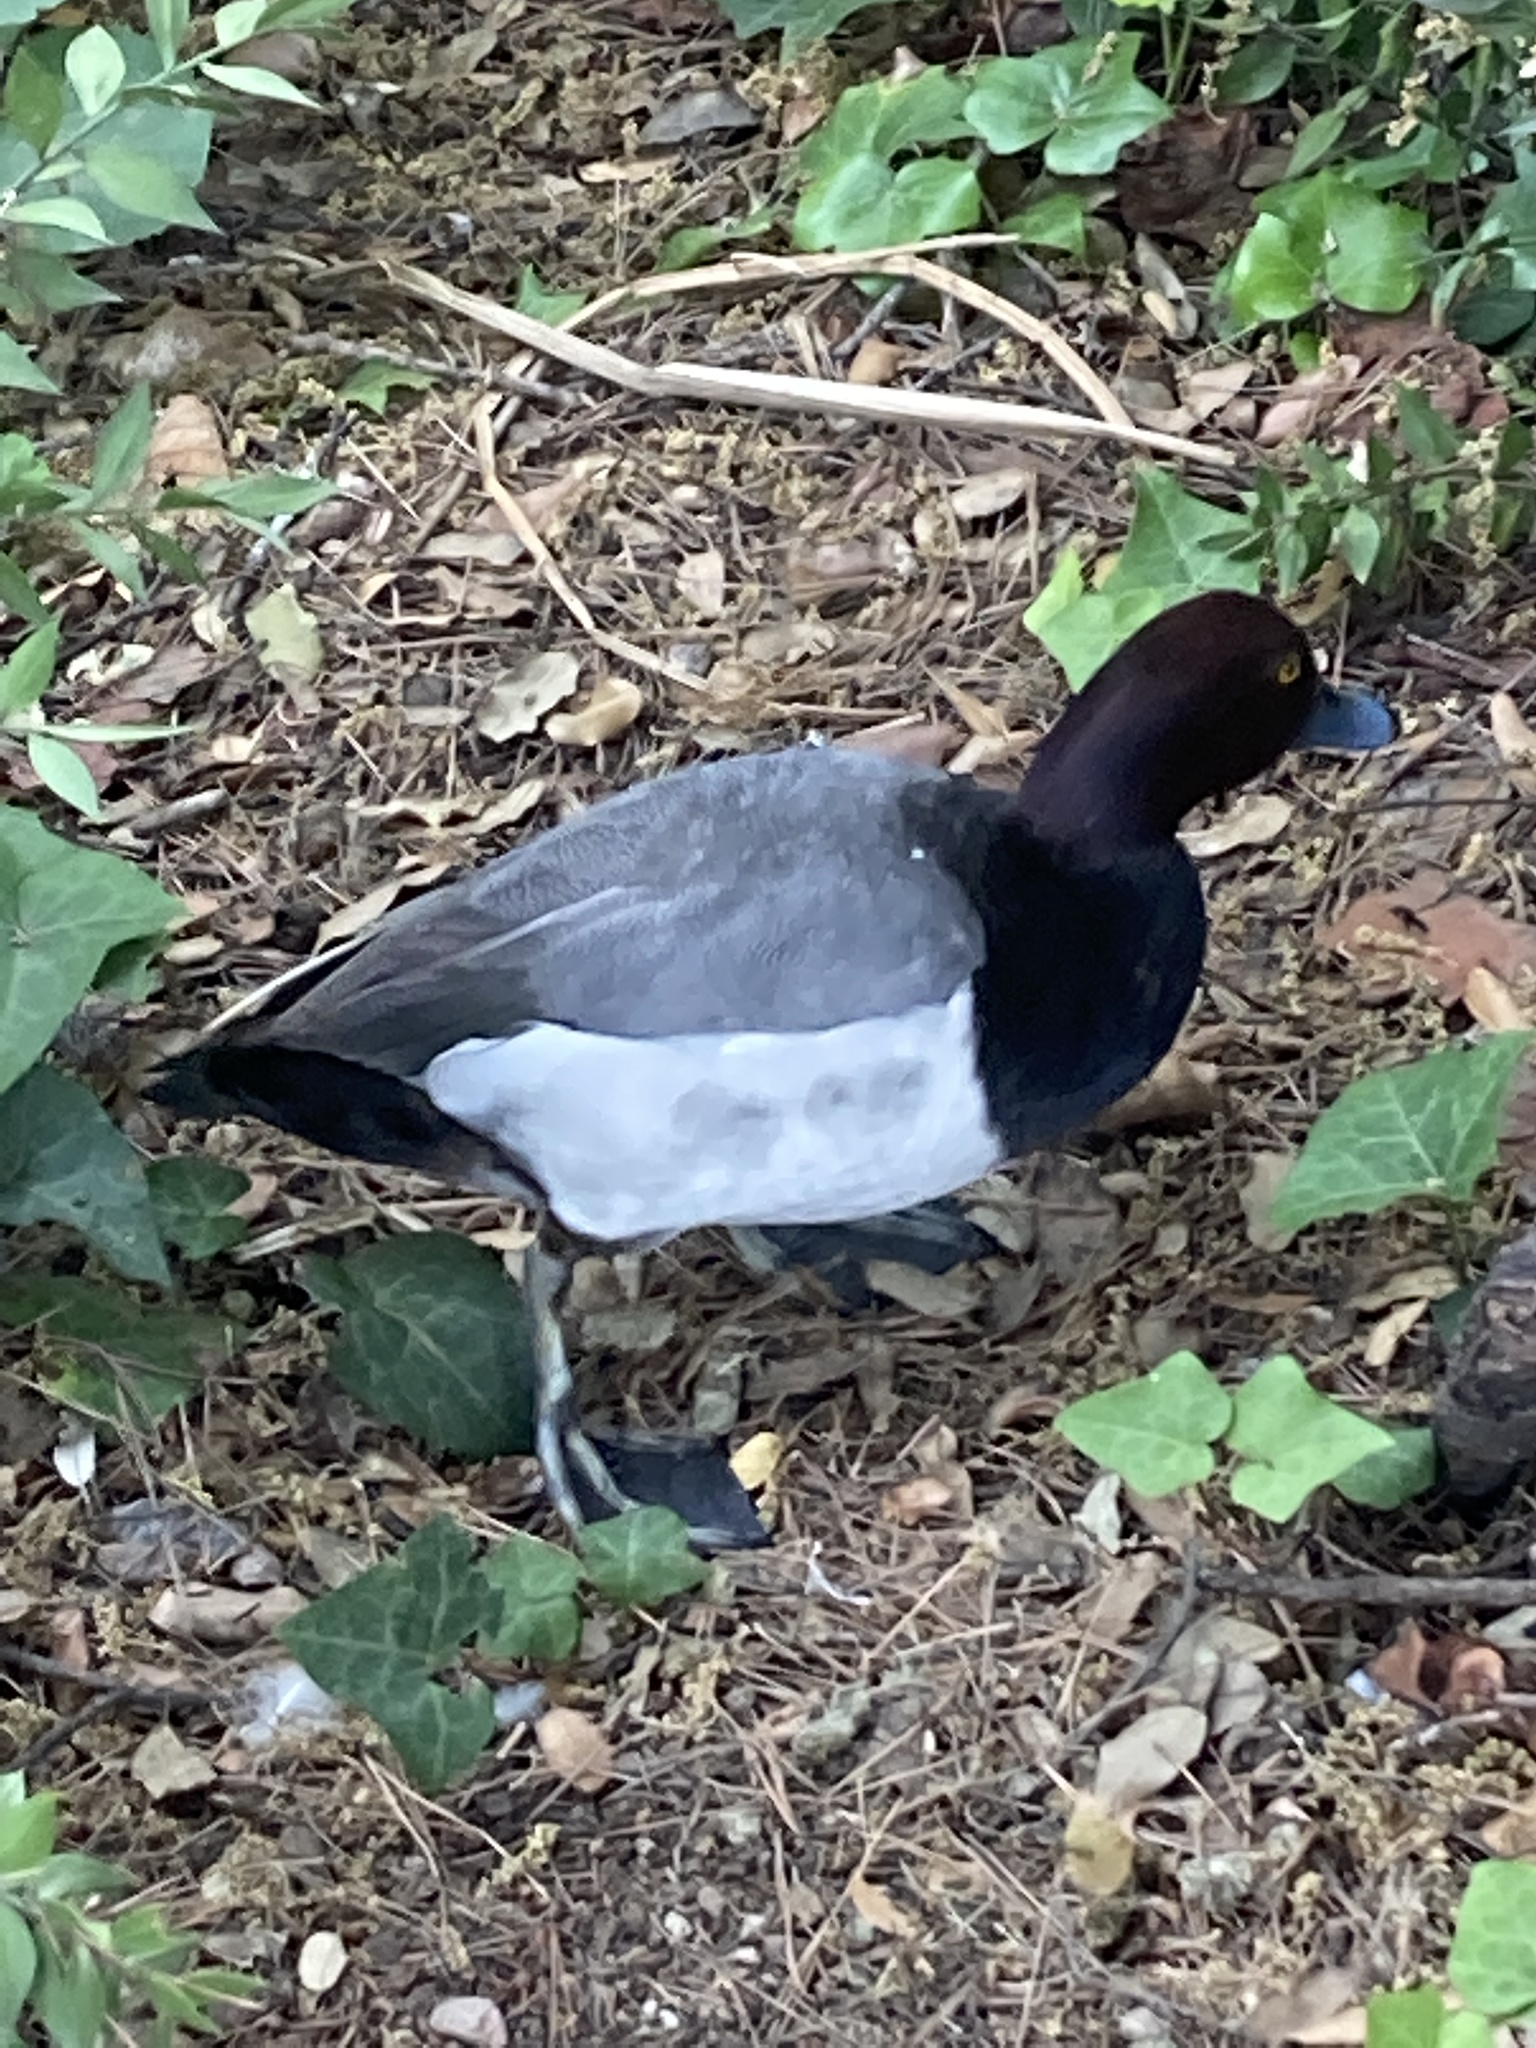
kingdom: Animalia
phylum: Chordata
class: Aves
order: Anseriformes
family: Anatidae
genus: Aythya
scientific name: Aythya
